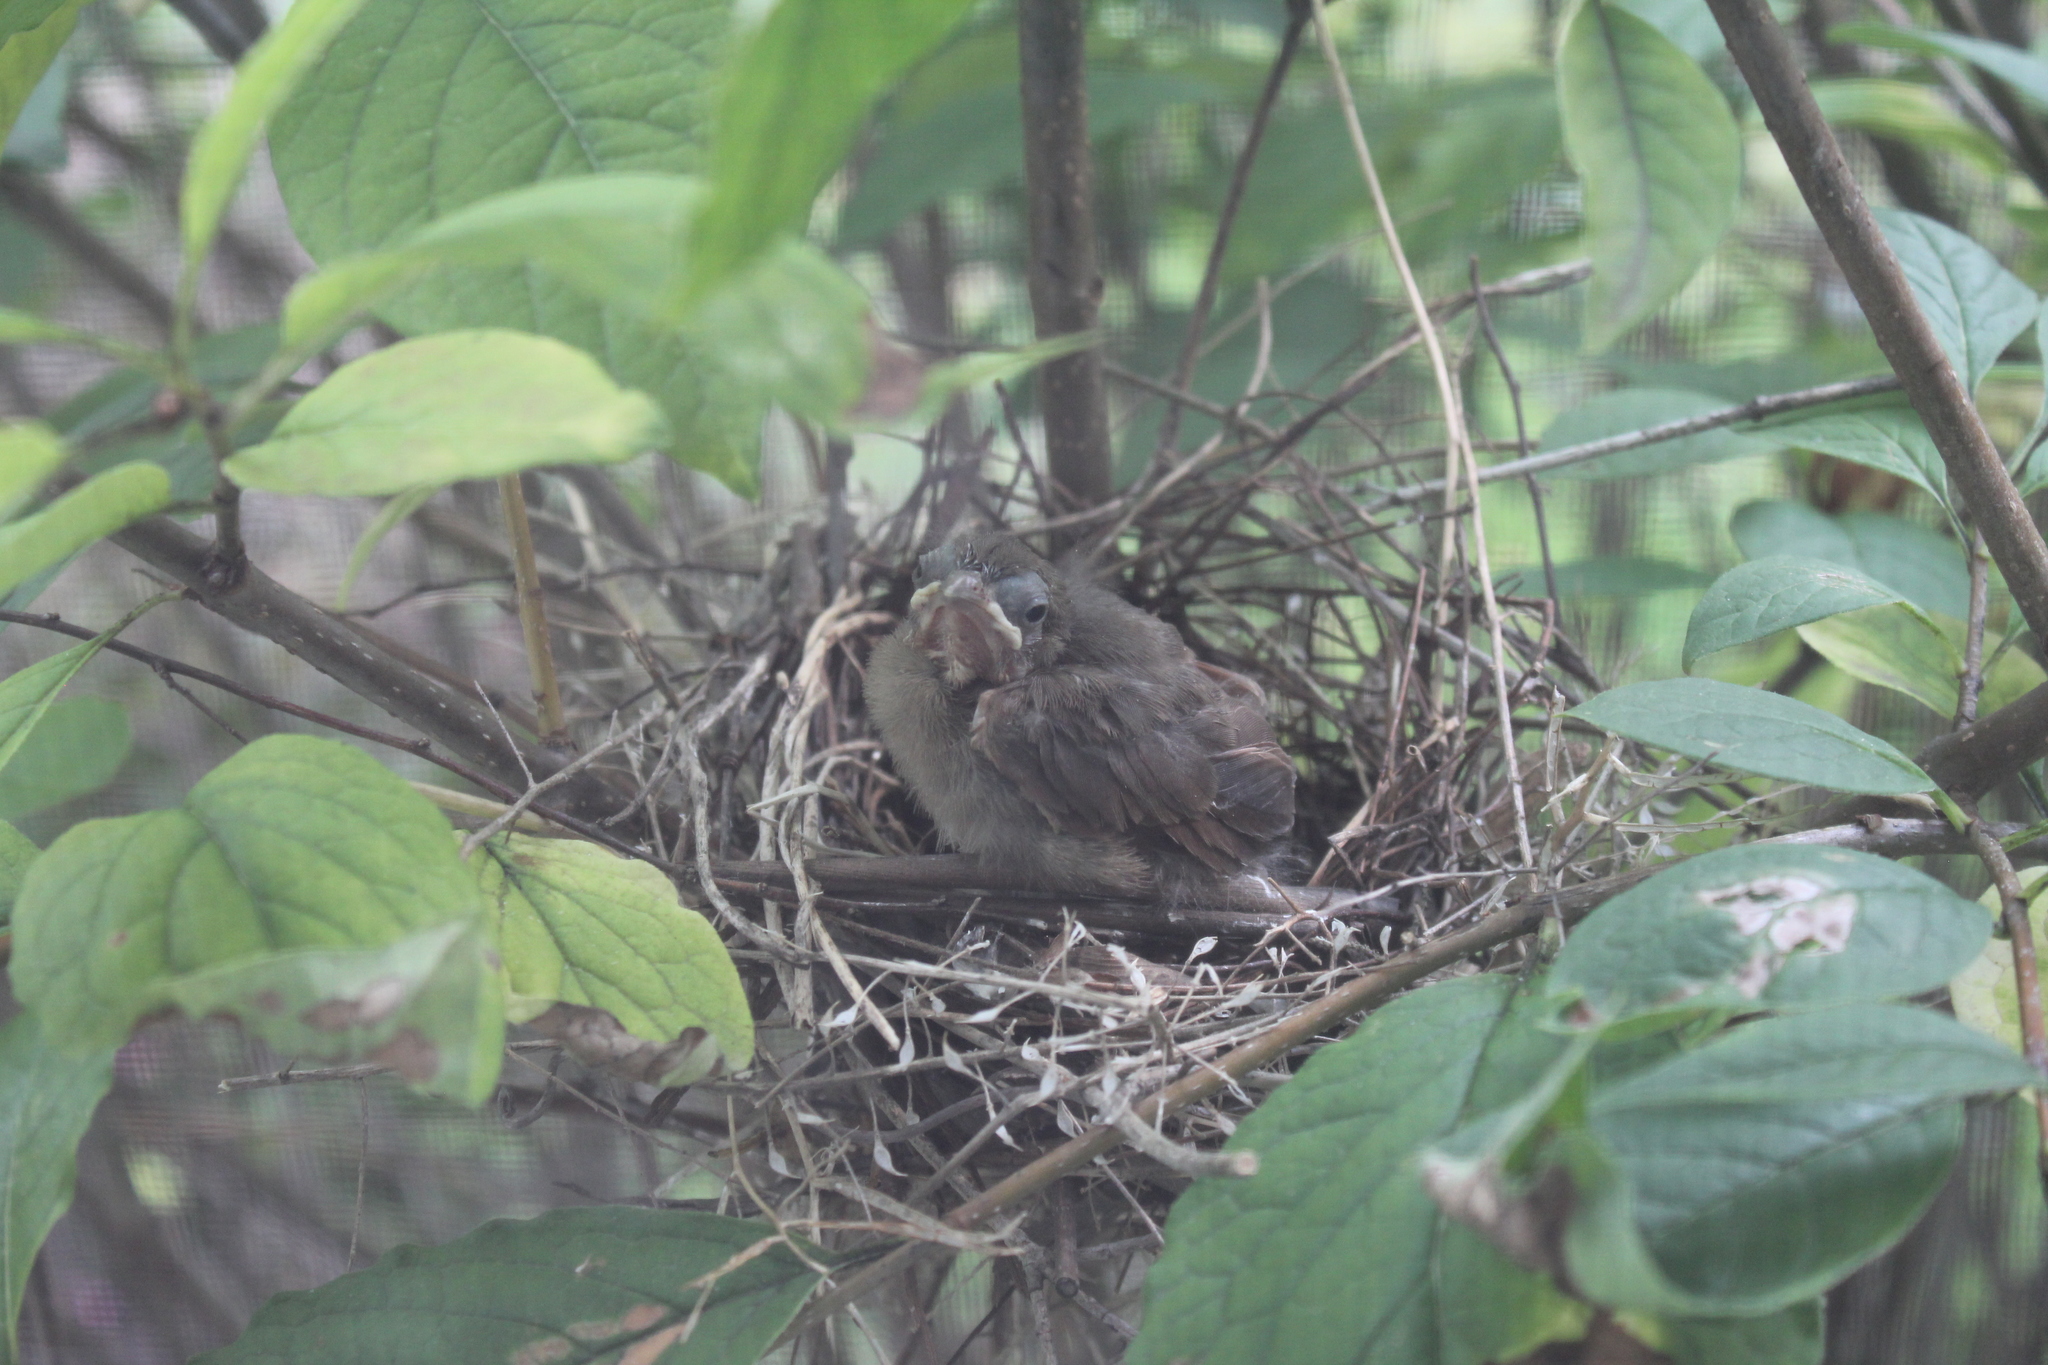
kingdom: Animalia
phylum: Chordata
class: Aves
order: Passeriformes
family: Cardinalidae
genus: Cardinalis
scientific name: Cardinalis cardinalis
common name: Northern cardinal
